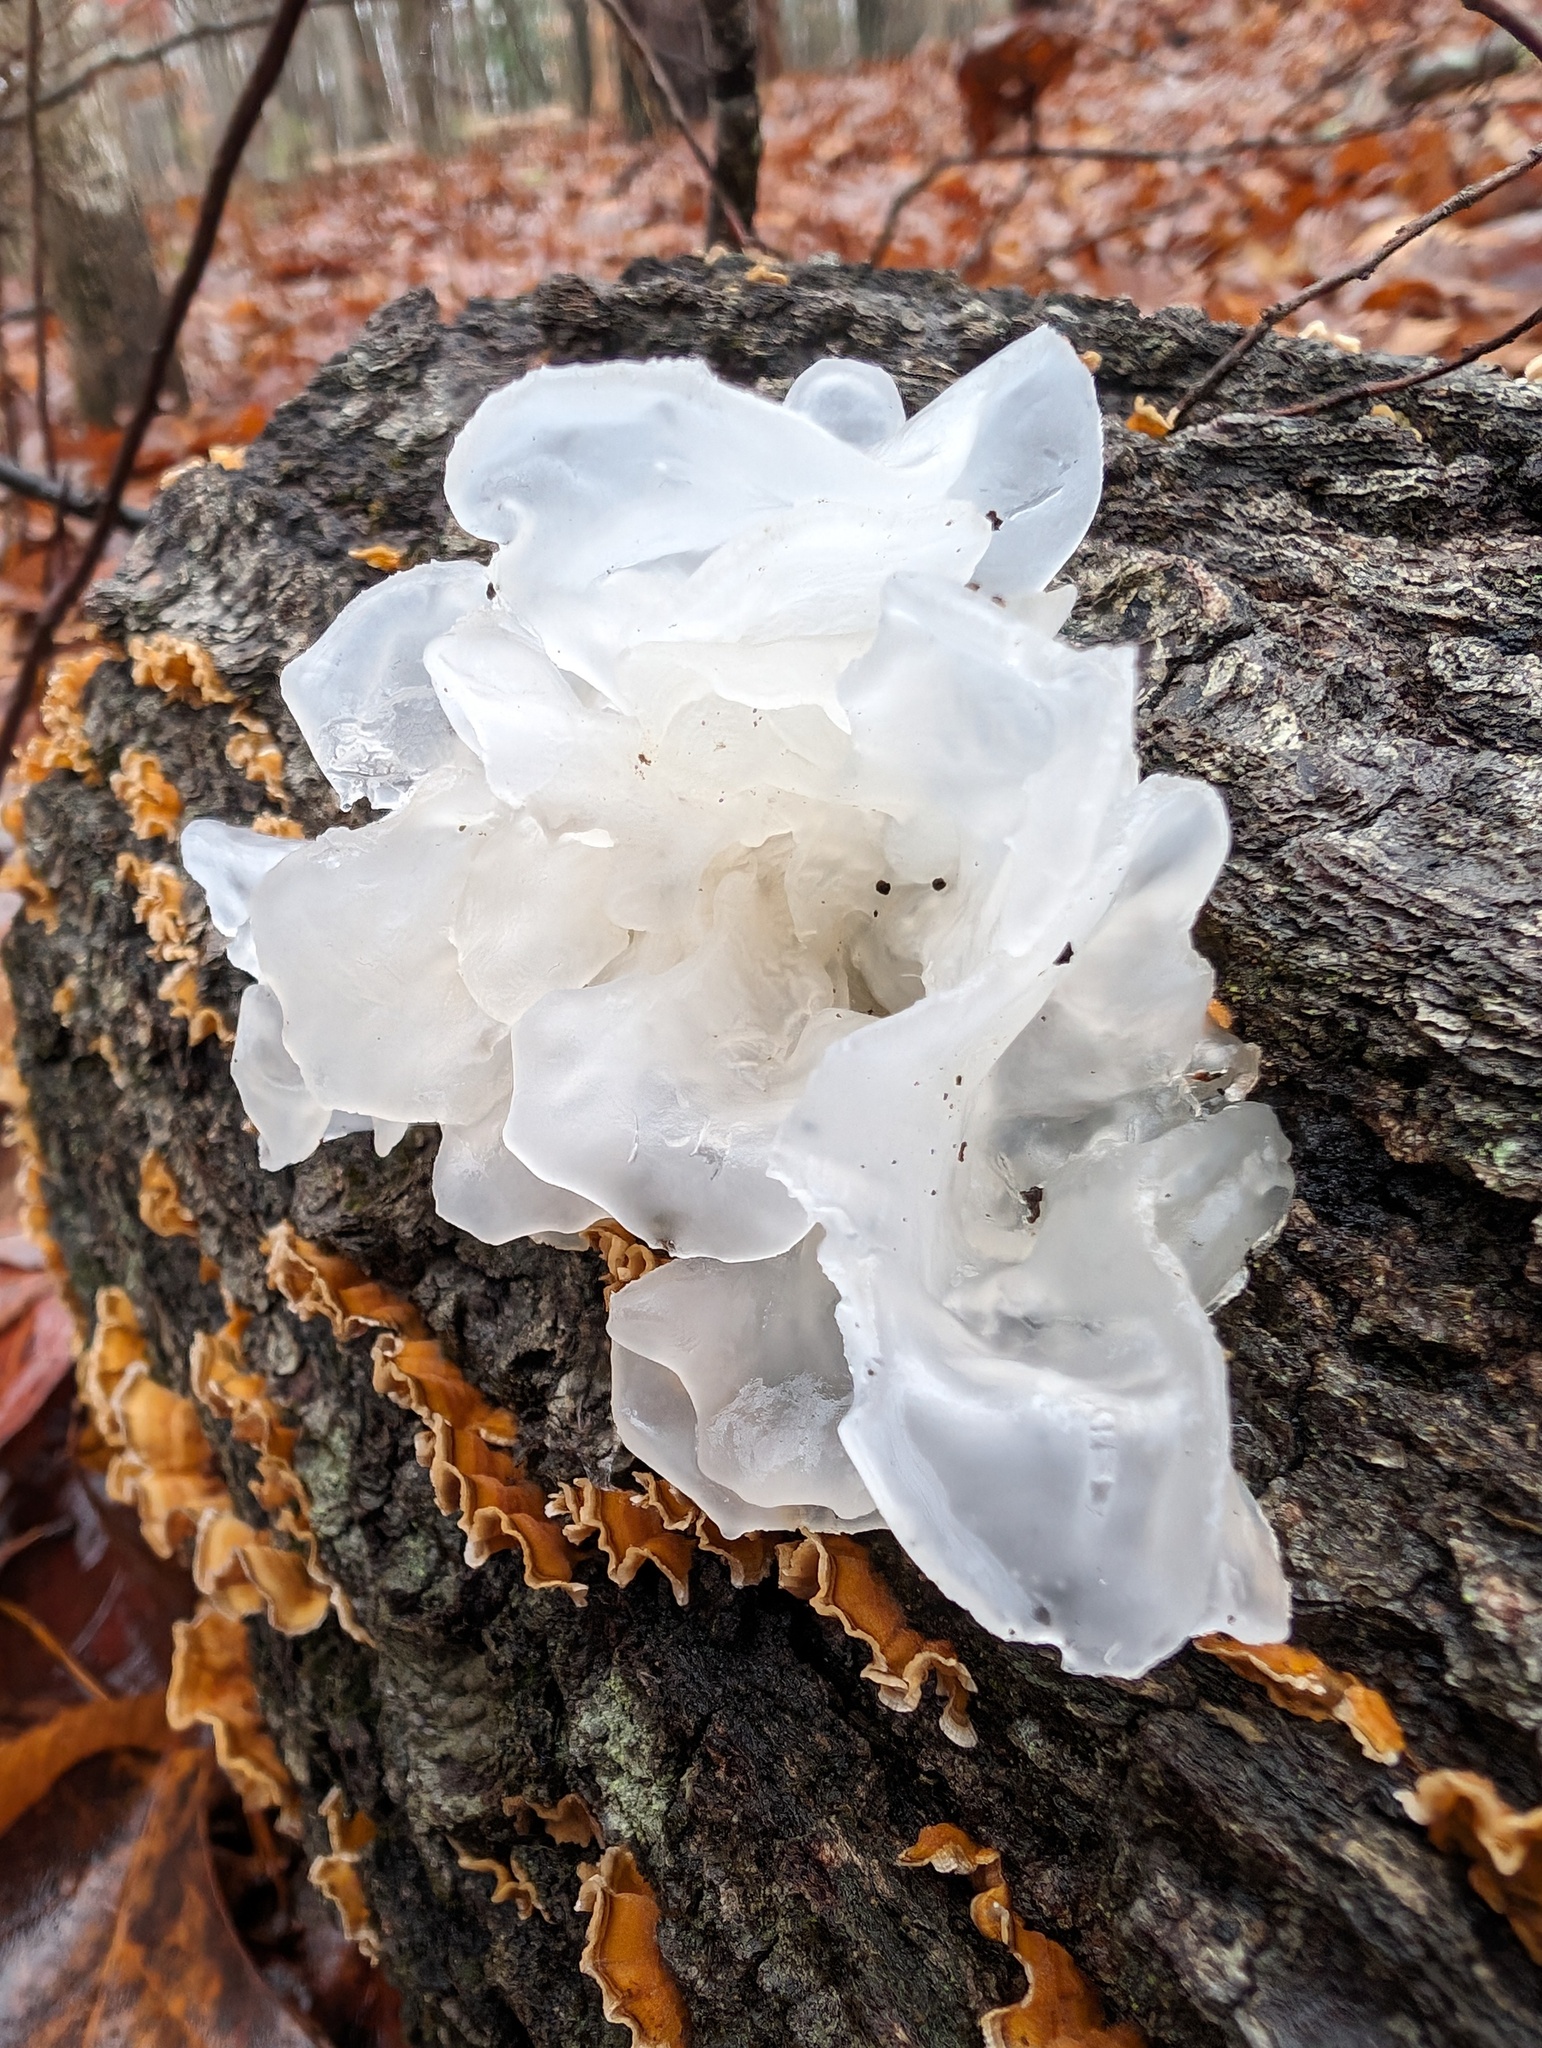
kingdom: Fungi
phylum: Basidiomycota
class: Tremellomycetes
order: Tremellales
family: Tremellaceae
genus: Tremella
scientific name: Tremella fuciformis
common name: Snow fungus
